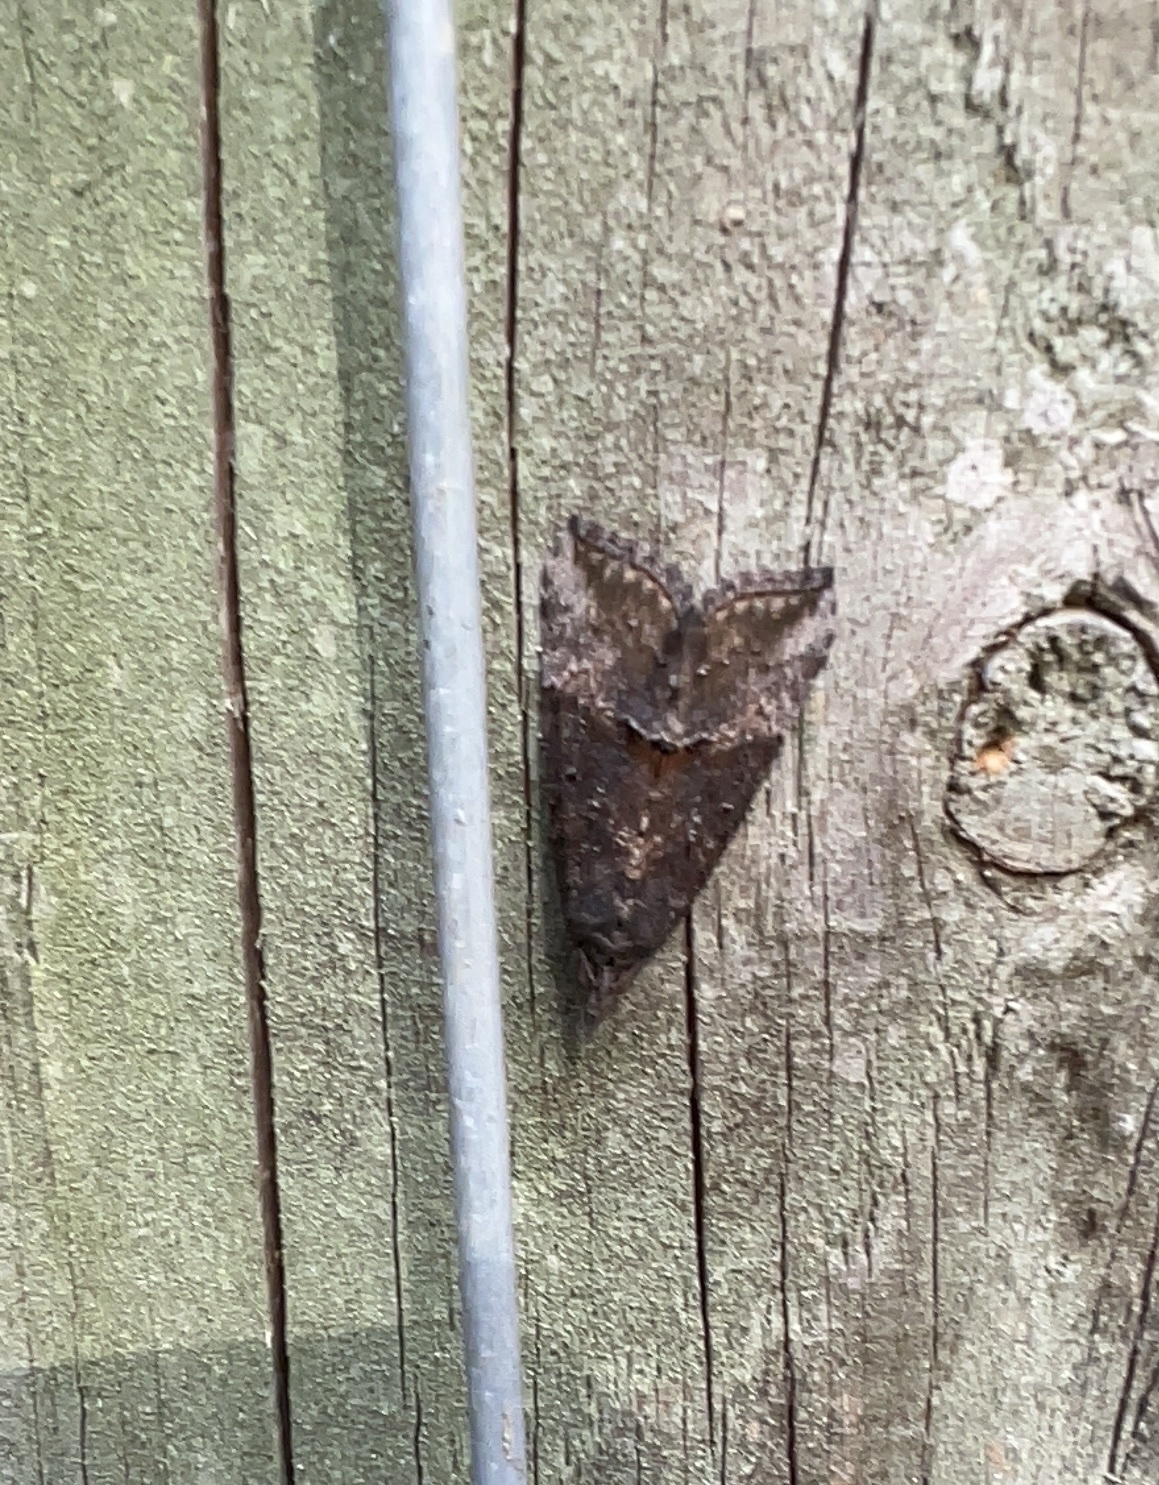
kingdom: Animalia
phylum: Arthropoda
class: Insecta
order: Lepidoptera
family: Erebidae
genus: Hypena
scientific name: Hypena scabra
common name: Green cloverworm
